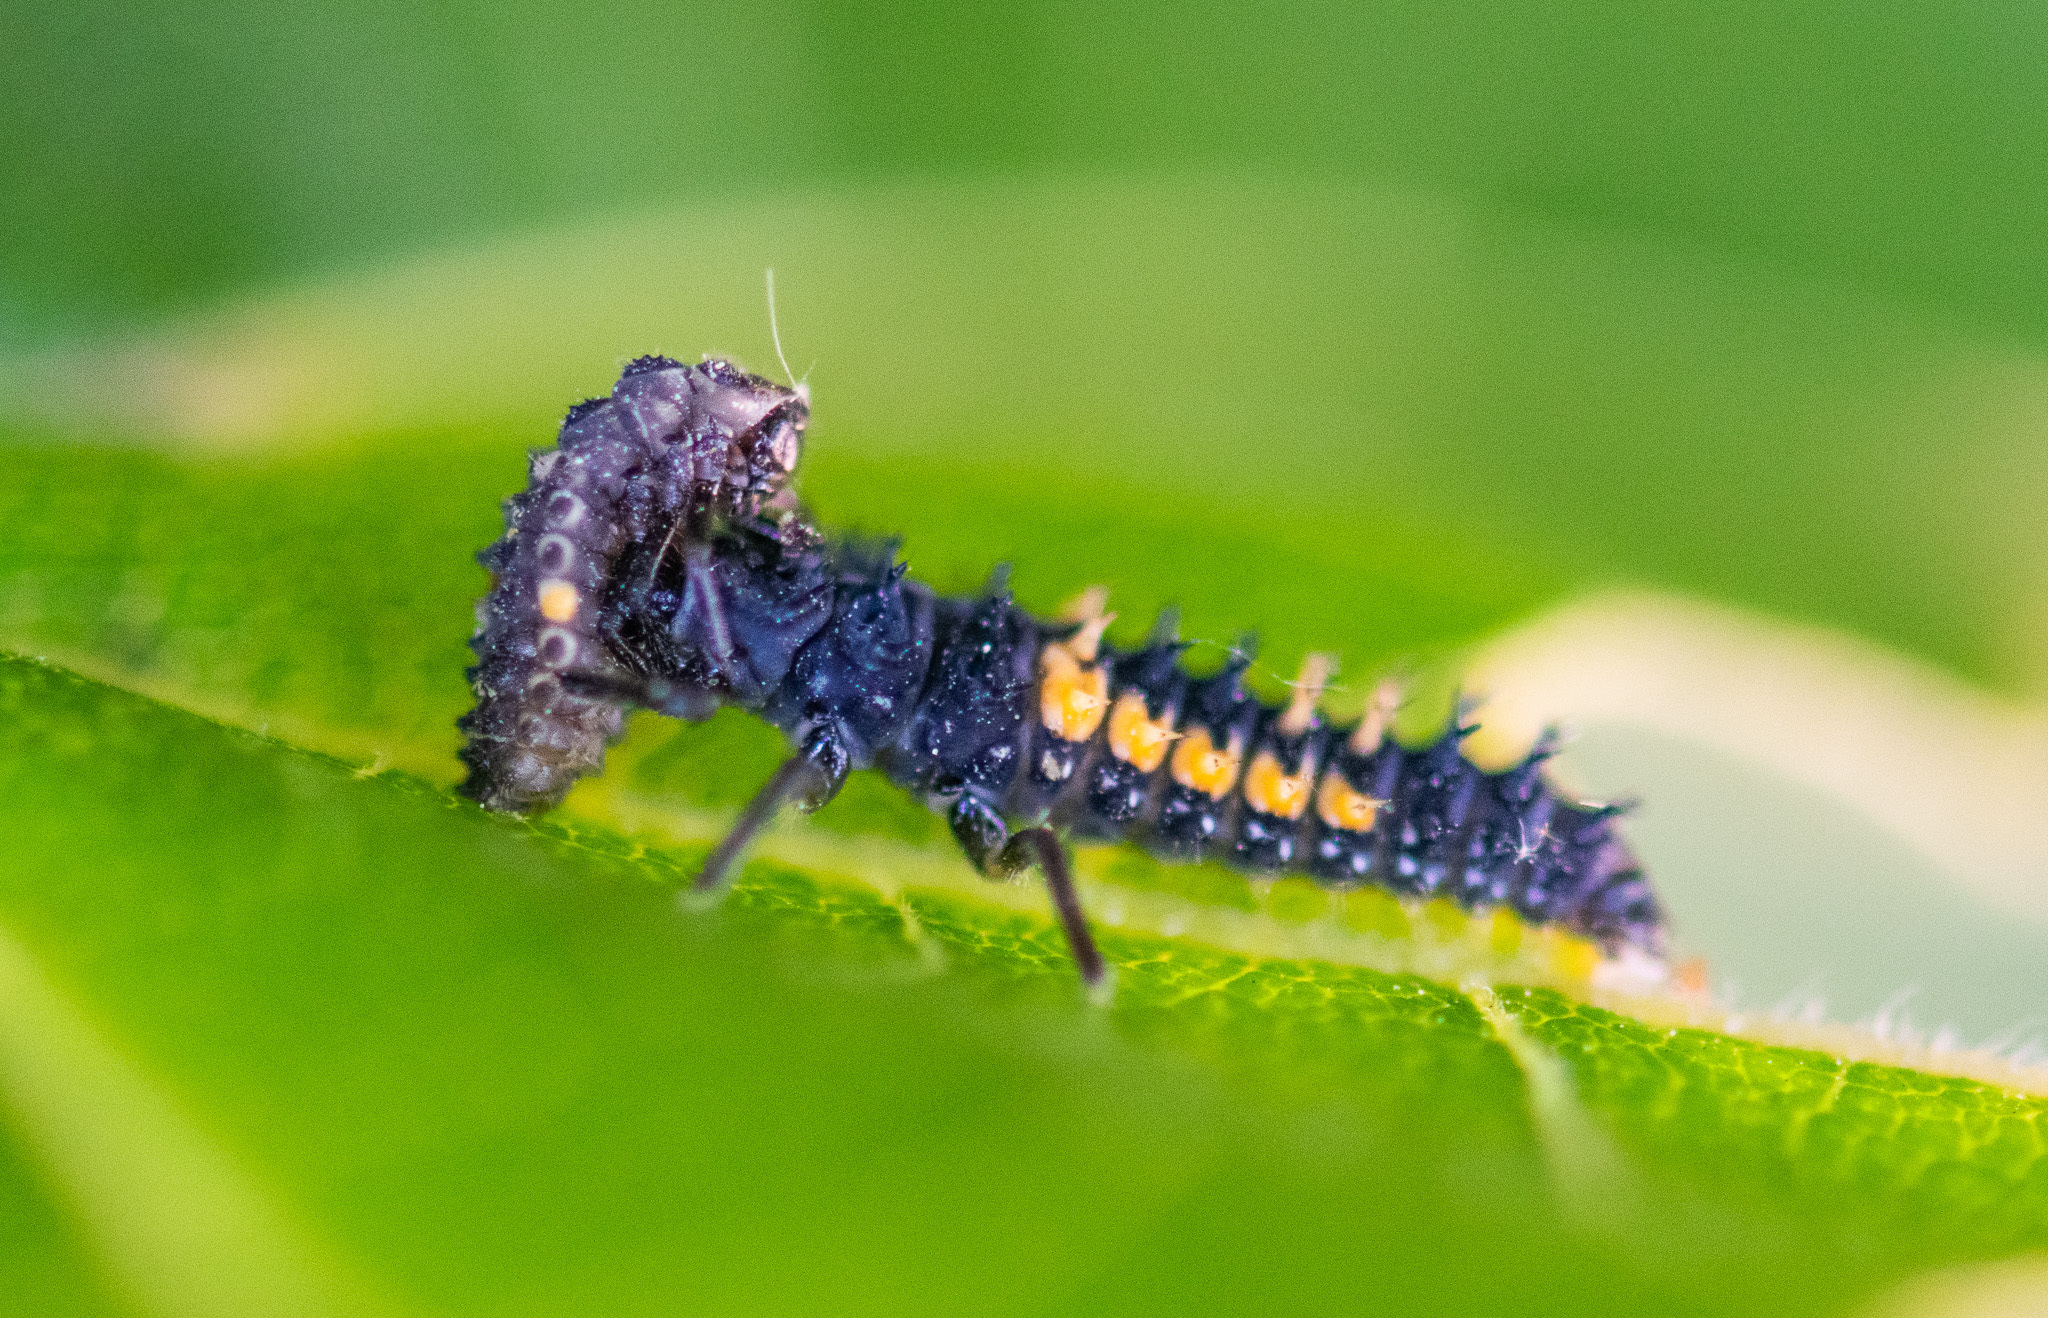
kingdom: Animalia
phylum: Arthropoda
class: Insecta
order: Coleoptera
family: Coccinellidae
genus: Harmonia
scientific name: Harmonia axyridis
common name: Harlequin ladybird
